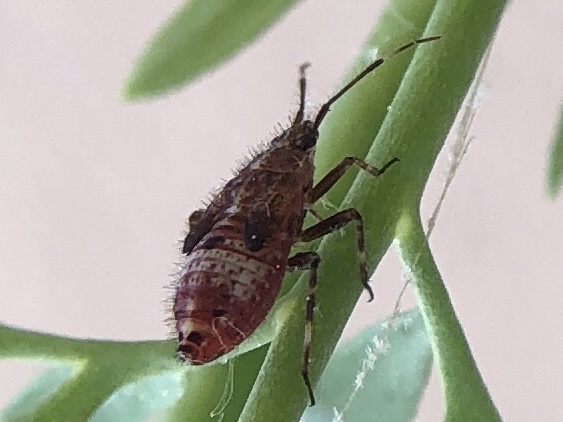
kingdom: Animalia
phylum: Arthropoda
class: Insecta
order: Hemiptera
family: Miridae
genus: Deraeocoris
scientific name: Deraeocoris flavilinea
